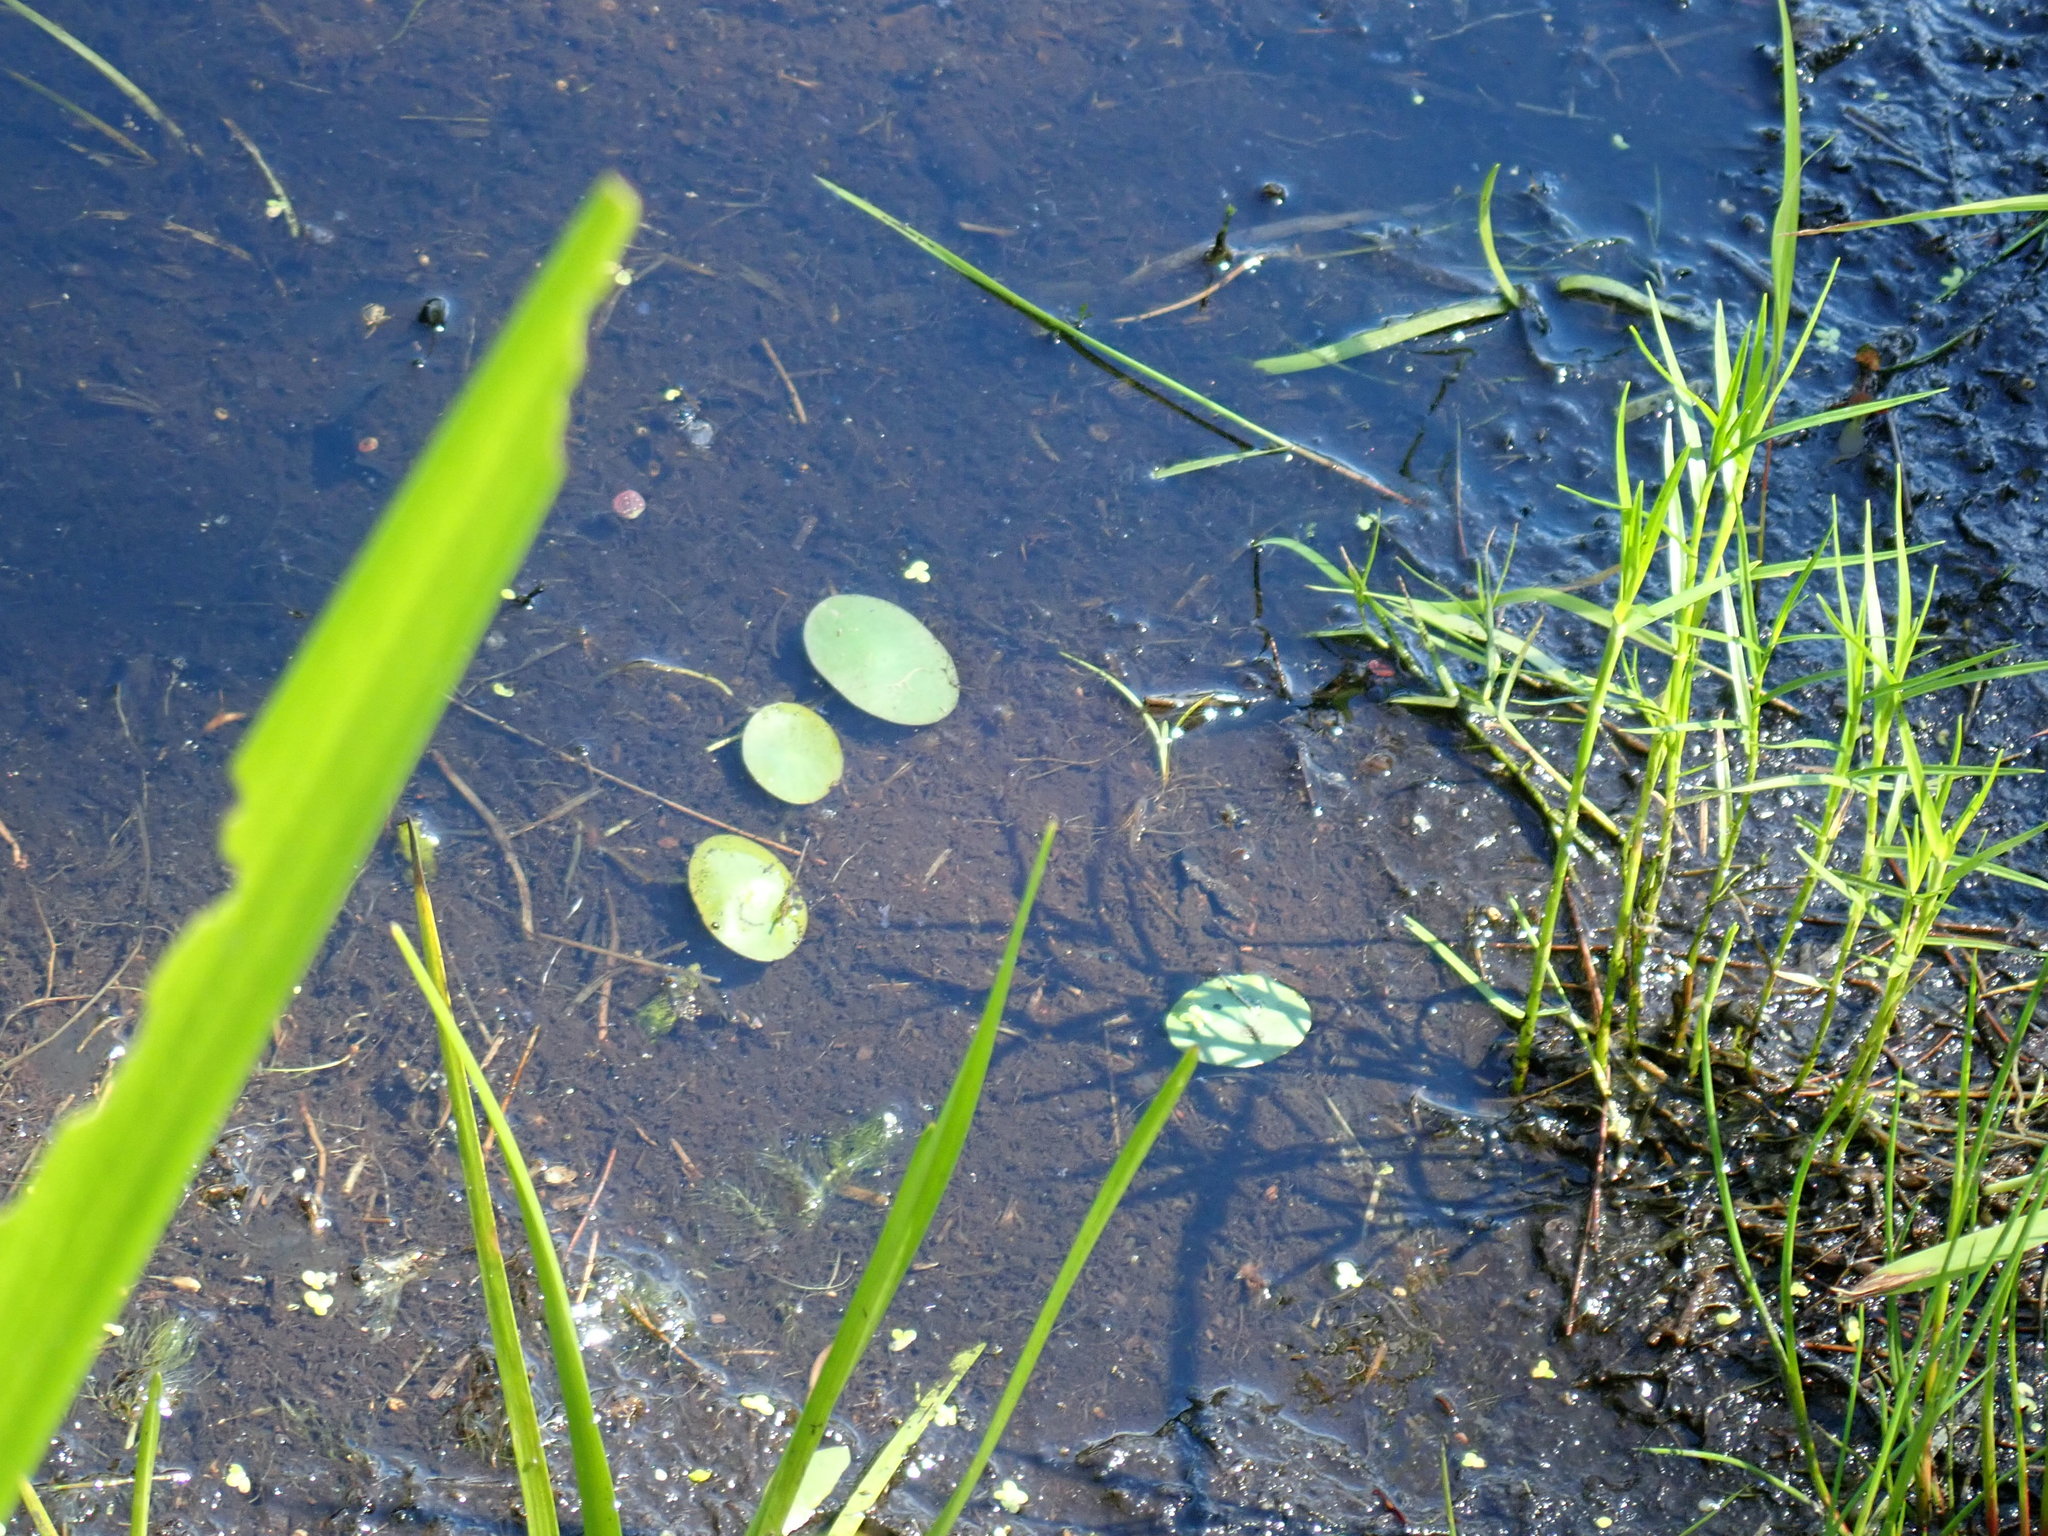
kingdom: Plantae
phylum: Tracheophyta
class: Magnoliopsida
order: Nymphaeales
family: Cabombaceae
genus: Brasenia
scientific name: Brasenia schreberi
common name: Water-shield
